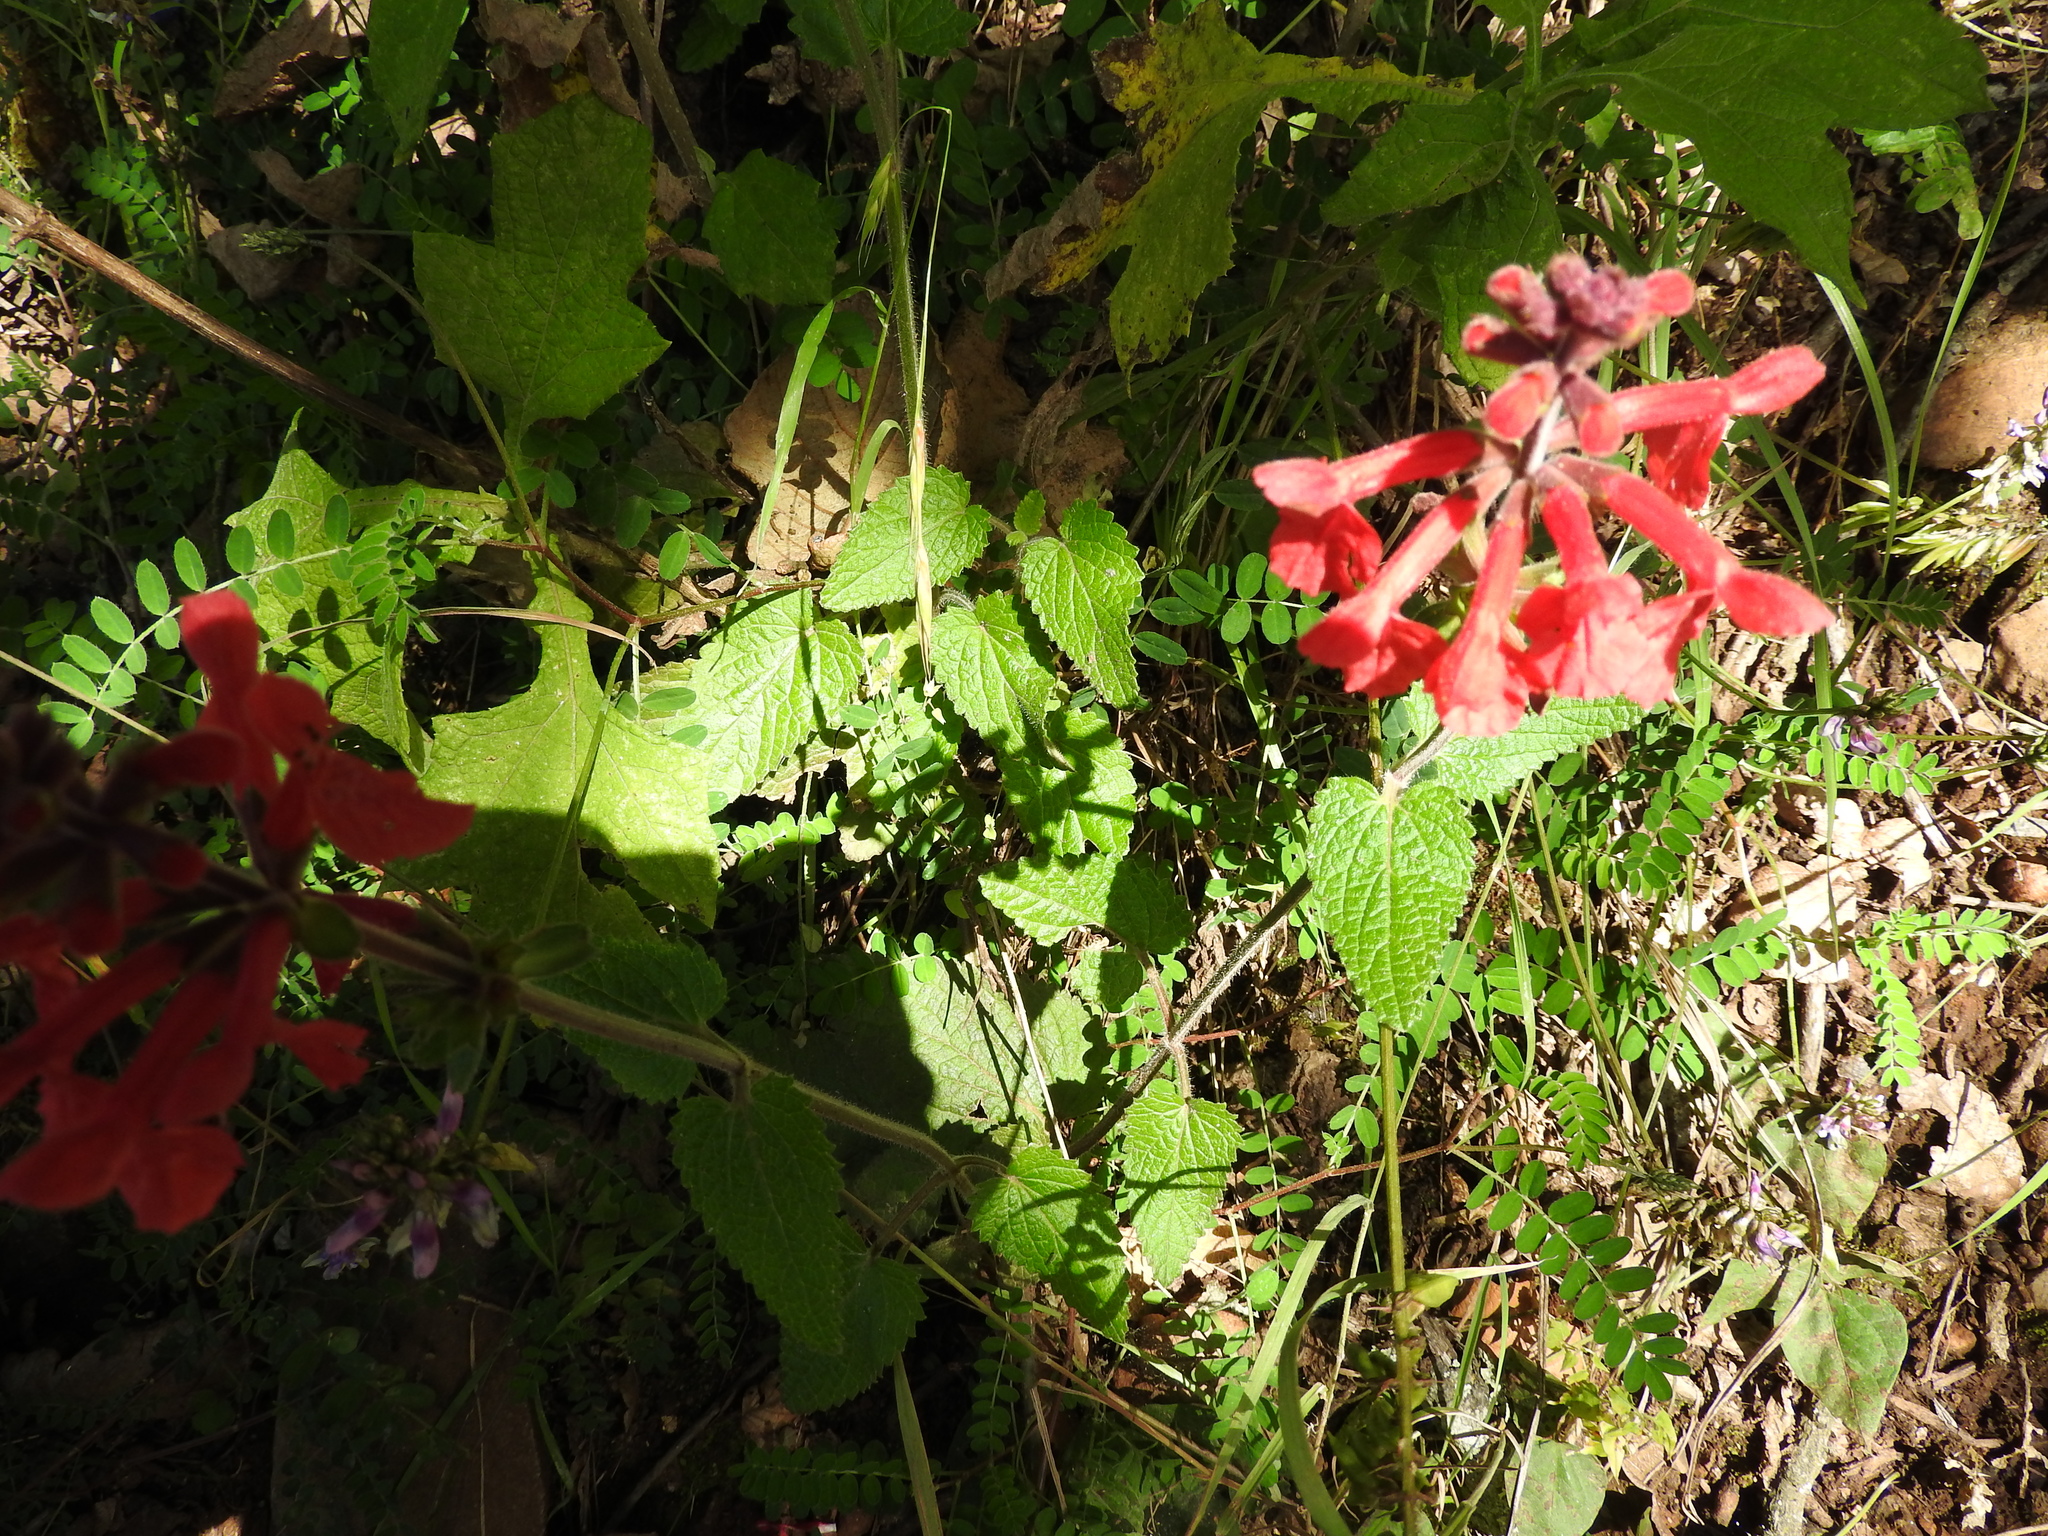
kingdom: Plantae
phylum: Tracheophyta
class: Magnoliopsida
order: Lamiales
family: Lamiaceae
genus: Stachys
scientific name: Stachys coccinea
